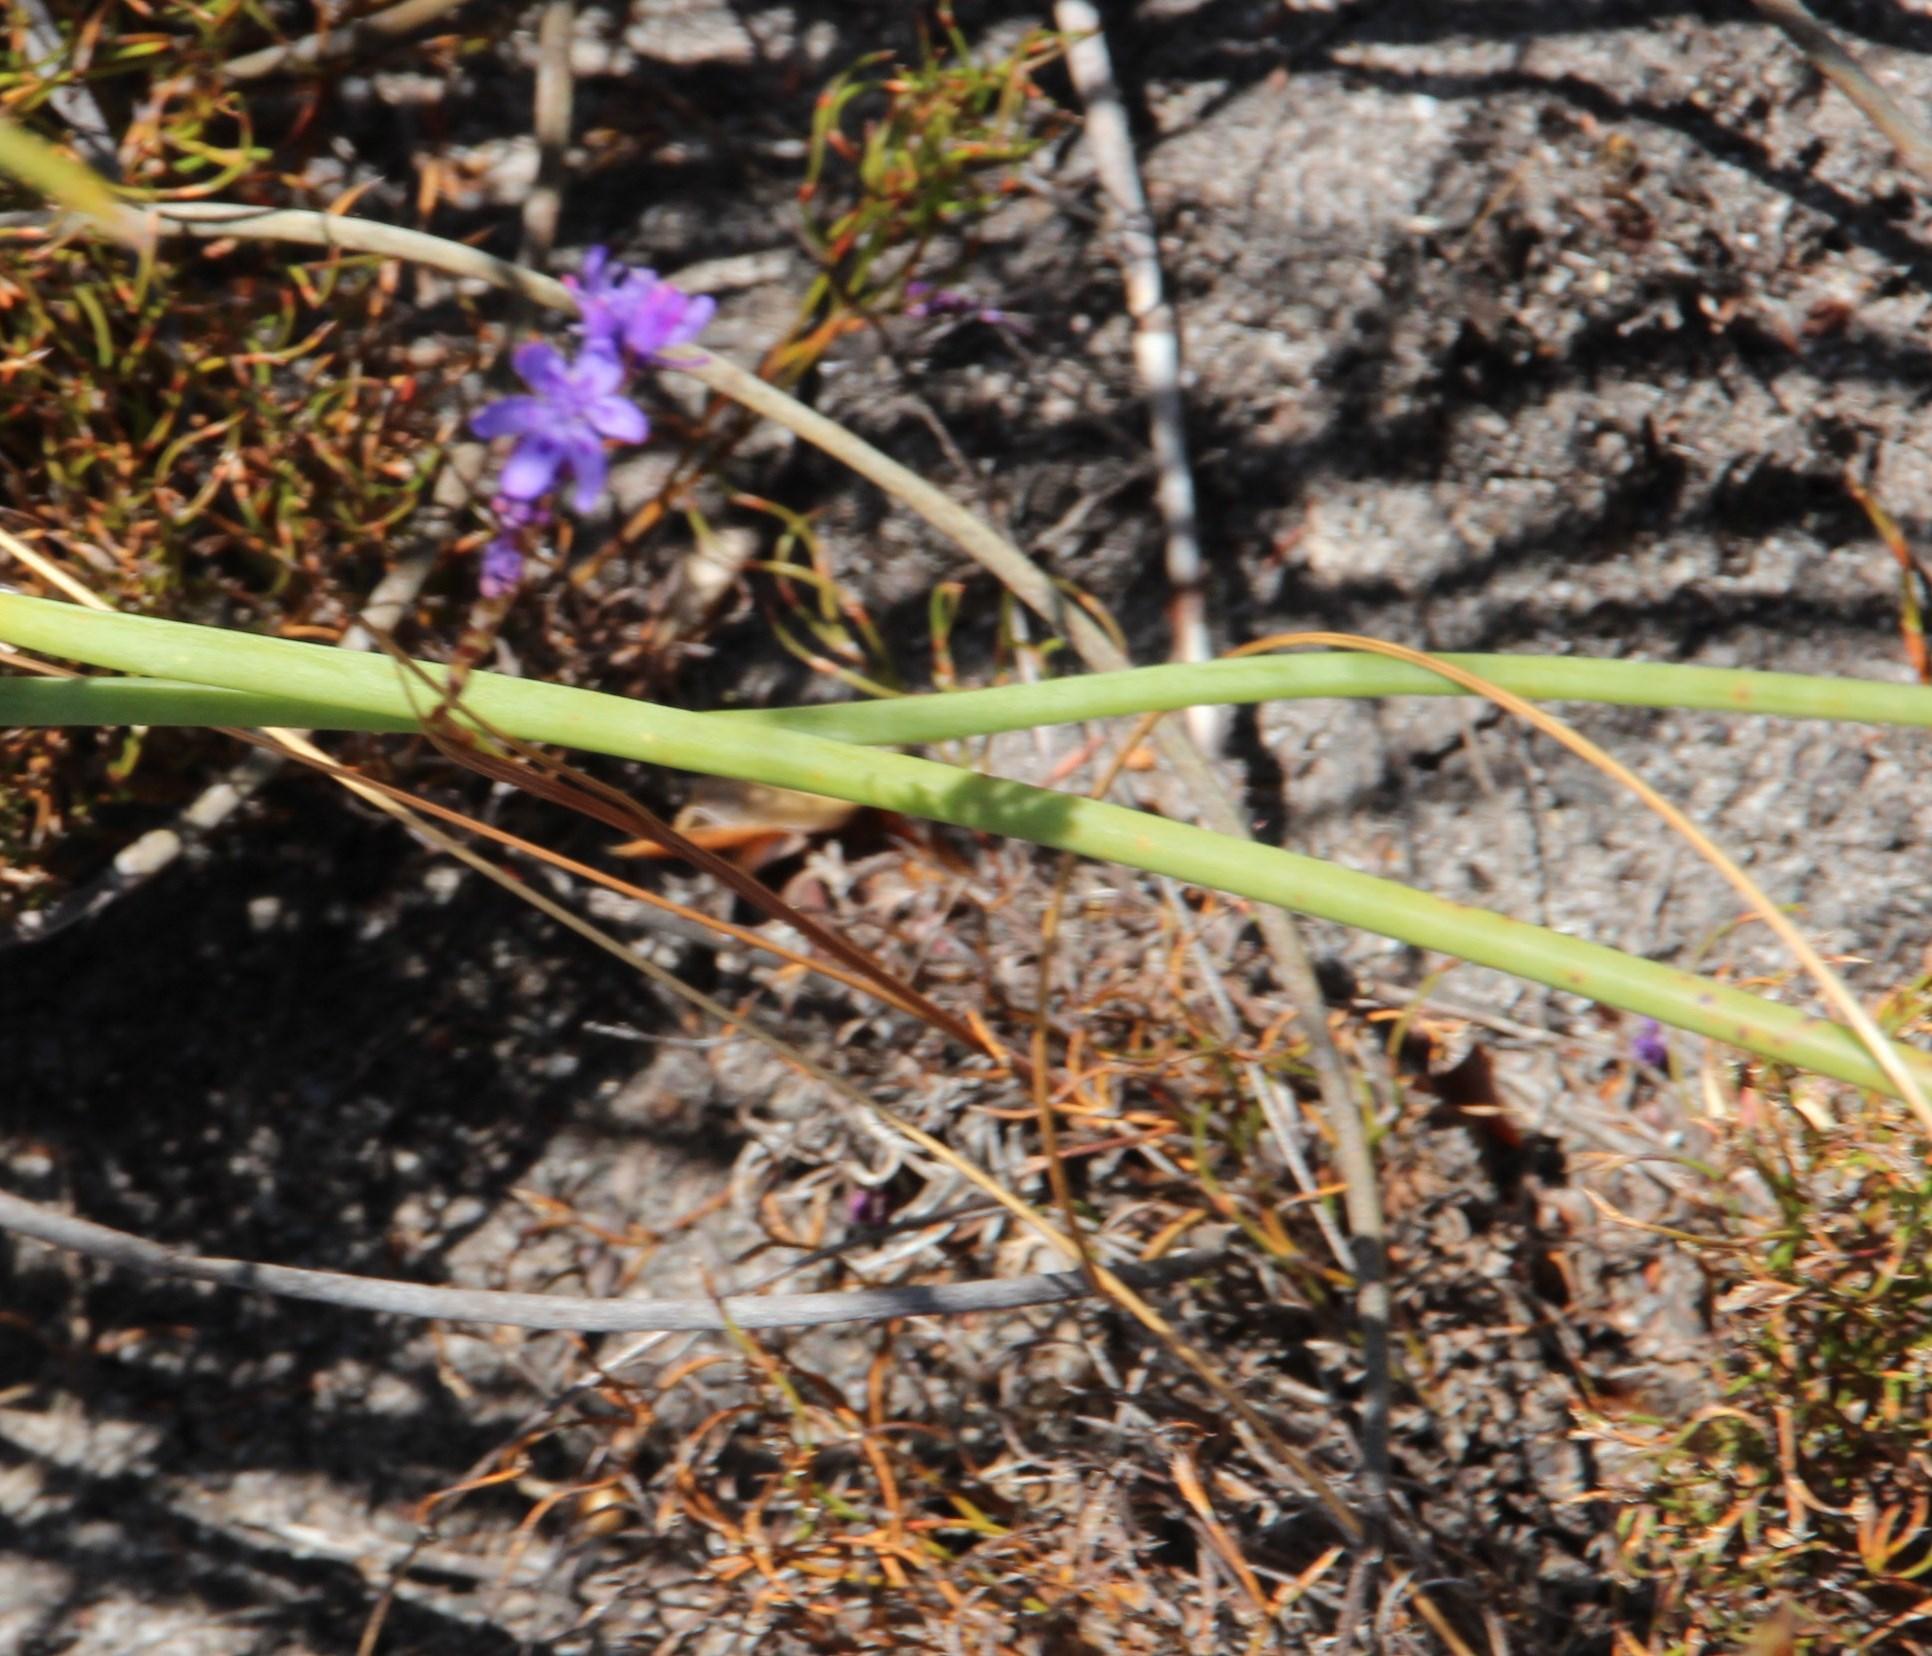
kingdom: Plantae
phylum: Tracheophyta
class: Liliopsida
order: Asparagales
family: Iridaceae
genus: Micranthus
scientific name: Micranthus filifolius
